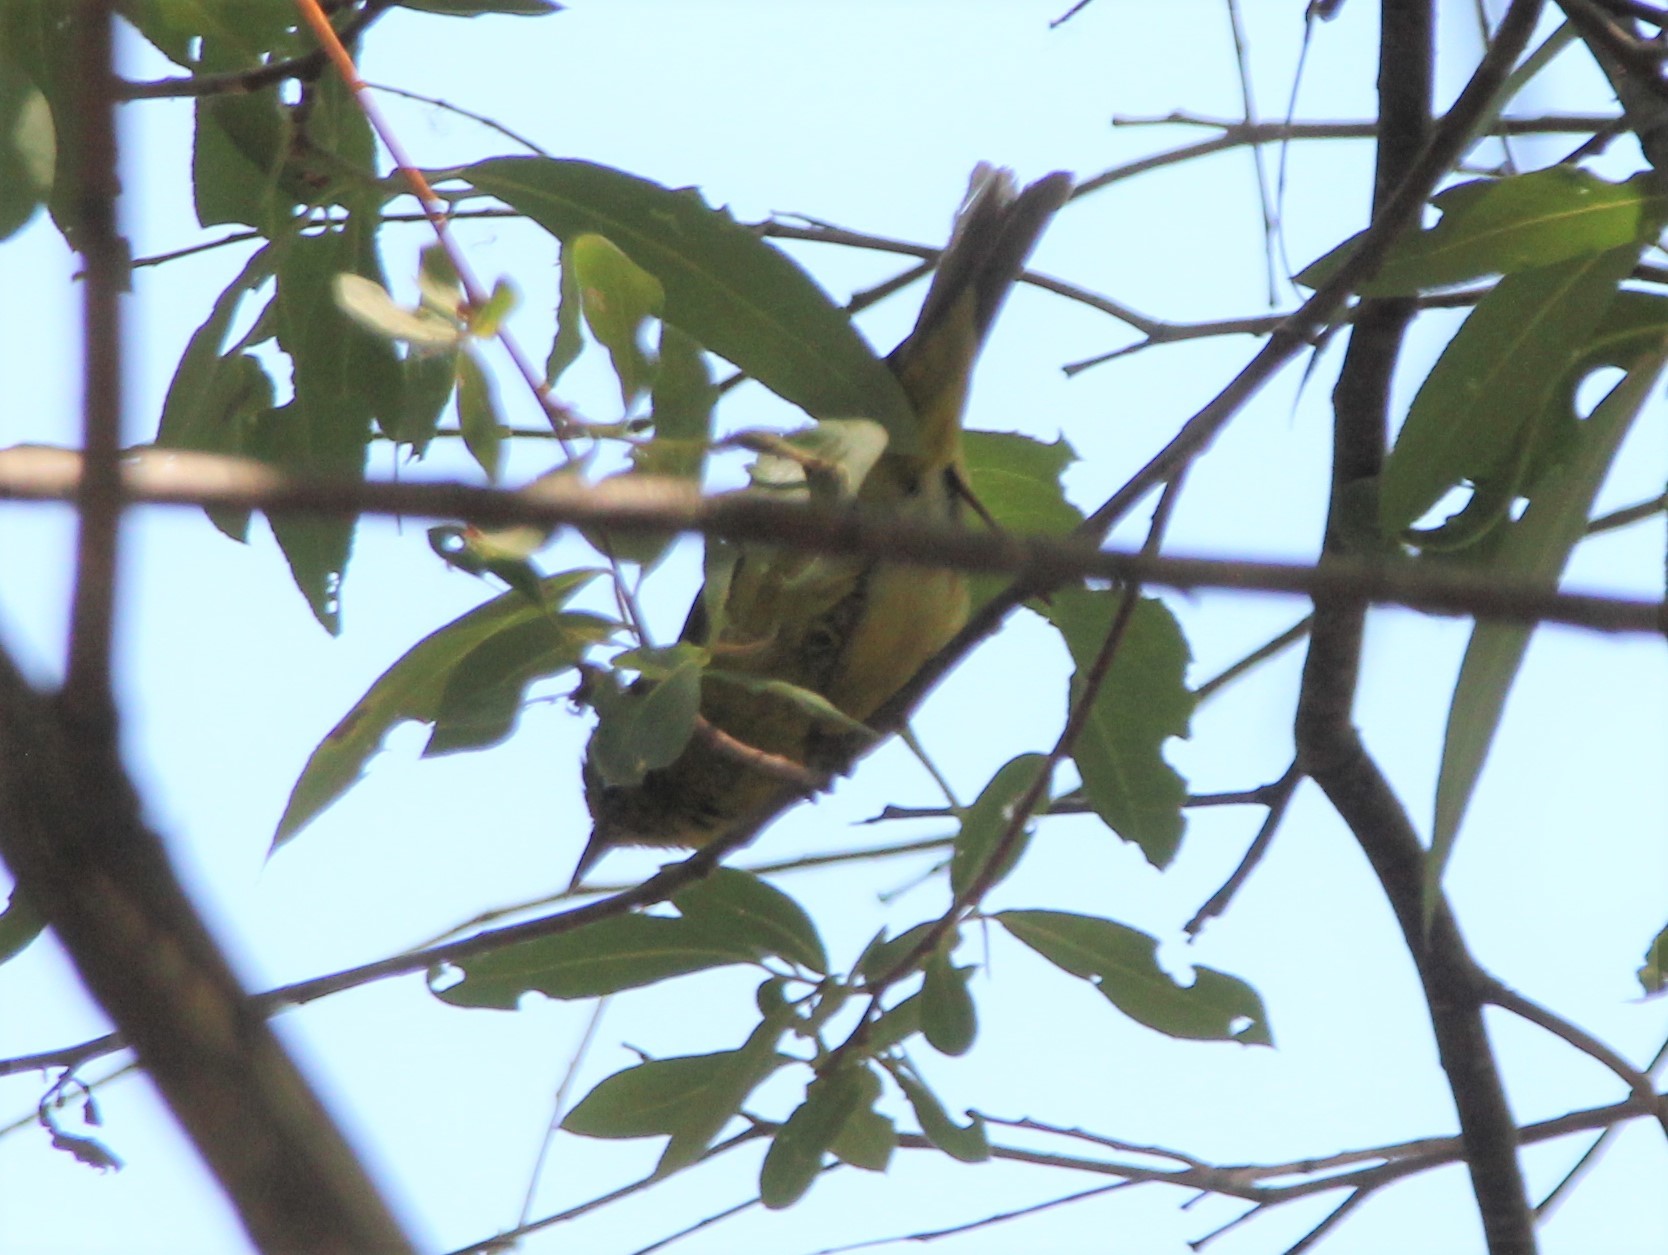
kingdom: Animalia
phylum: Chordata
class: Aves
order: Passeriformes
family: Parulidae
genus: Leiothlypis
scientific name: Leiothlypis celata
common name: Orange-crowned warbler
